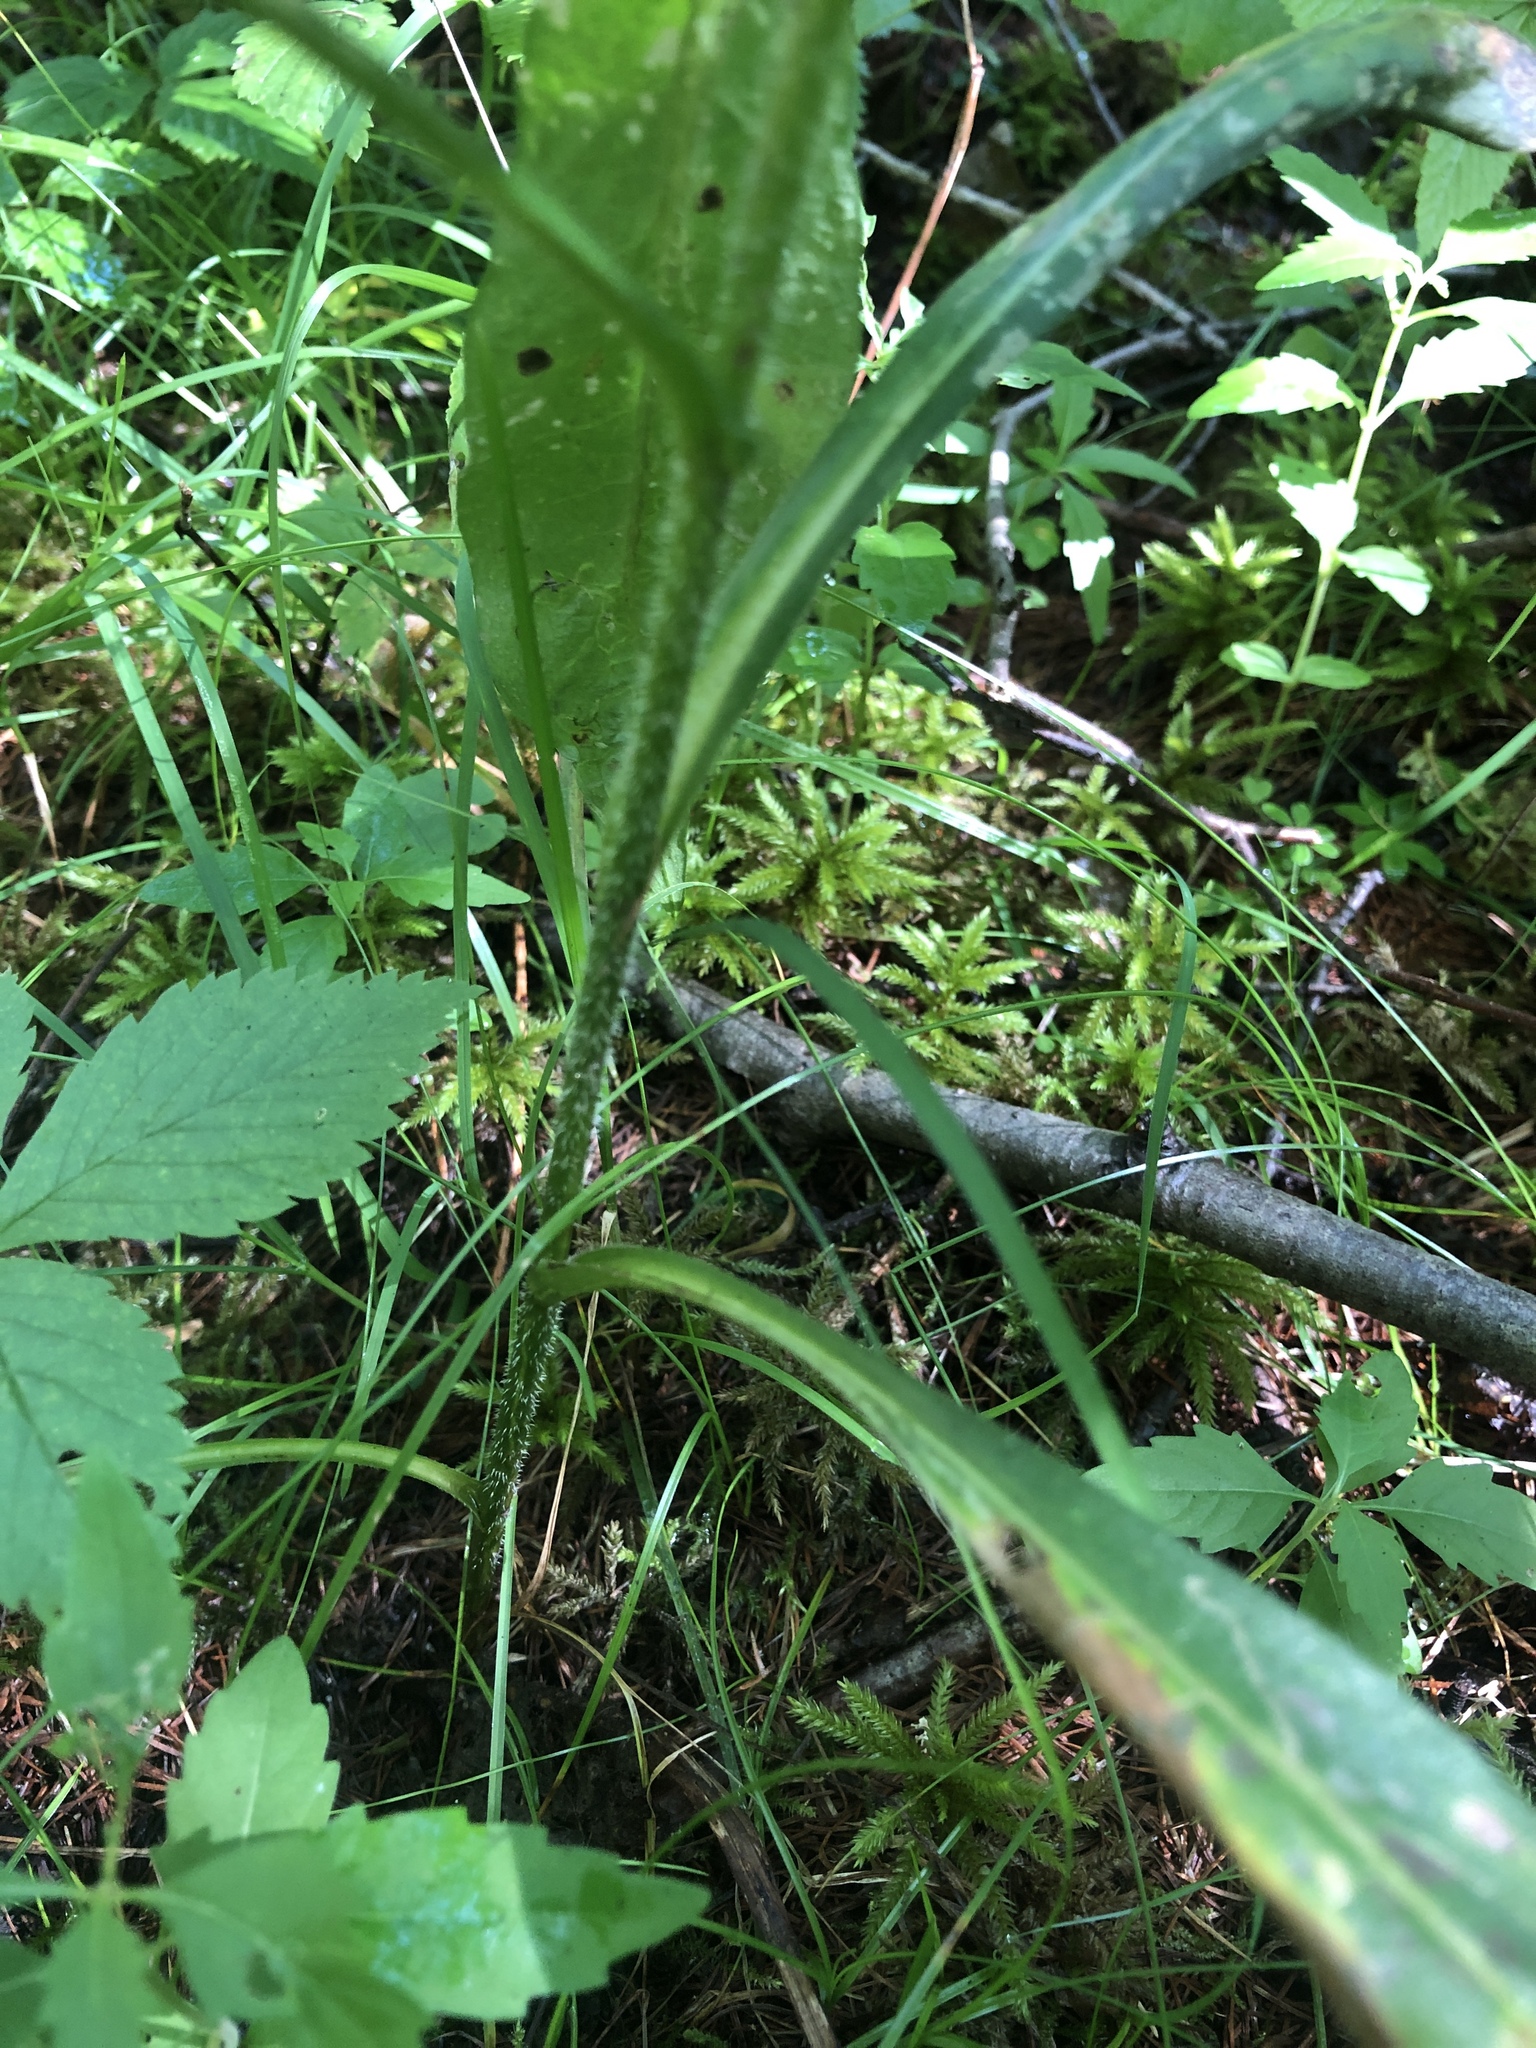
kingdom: Plantae
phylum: Tracheophyta
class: Magnoliopsida
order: Asterales
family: Asteraceae
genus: Symphyotrichum
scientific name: Symphyotrichum puniceum
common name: Bog aster
